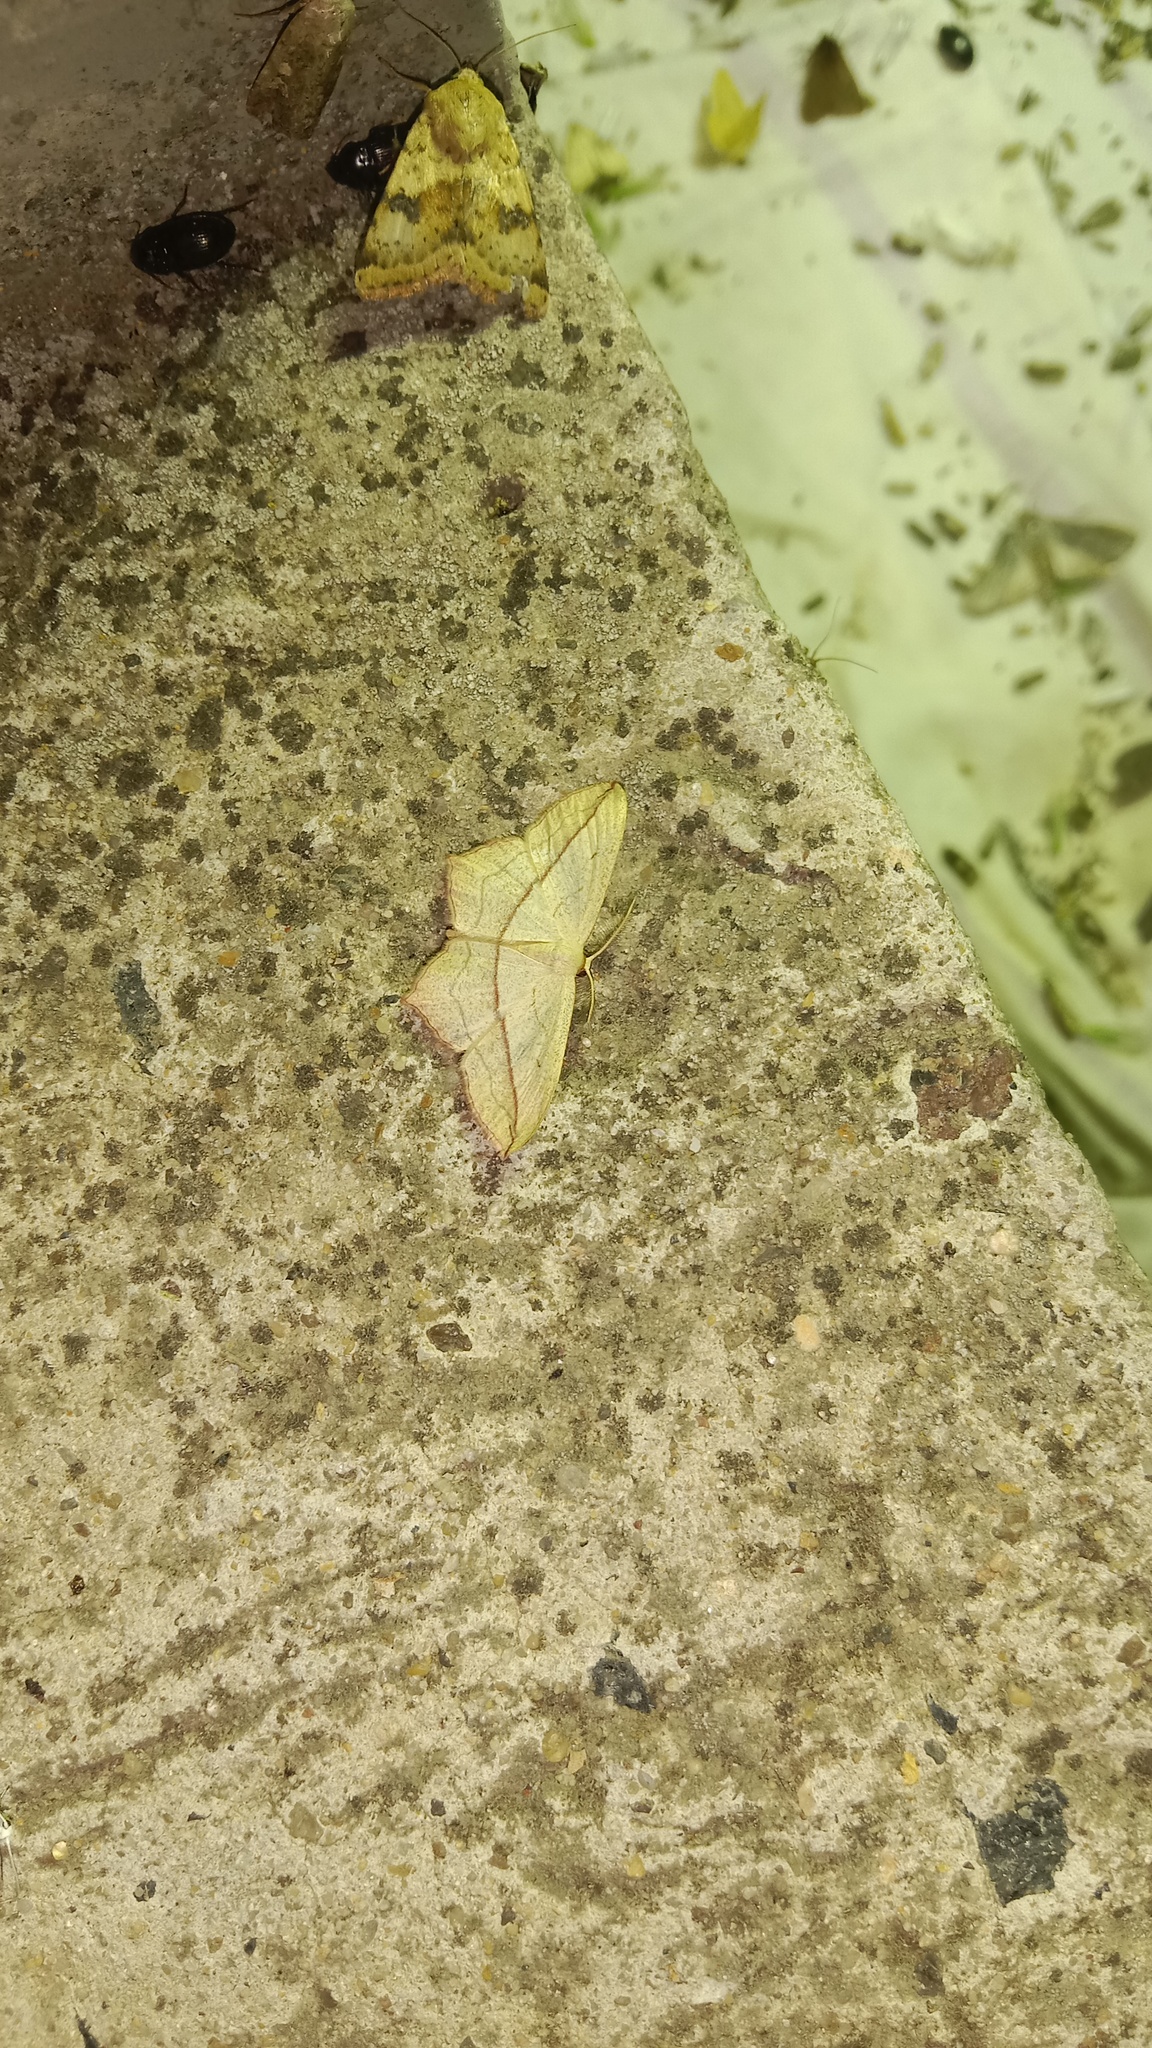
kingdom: Animalia
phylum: Arthropoda
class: Insecta
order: Lepidoptera
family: Geometridae
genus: Timandra
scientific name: Timandra comae
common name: Blood-vein
